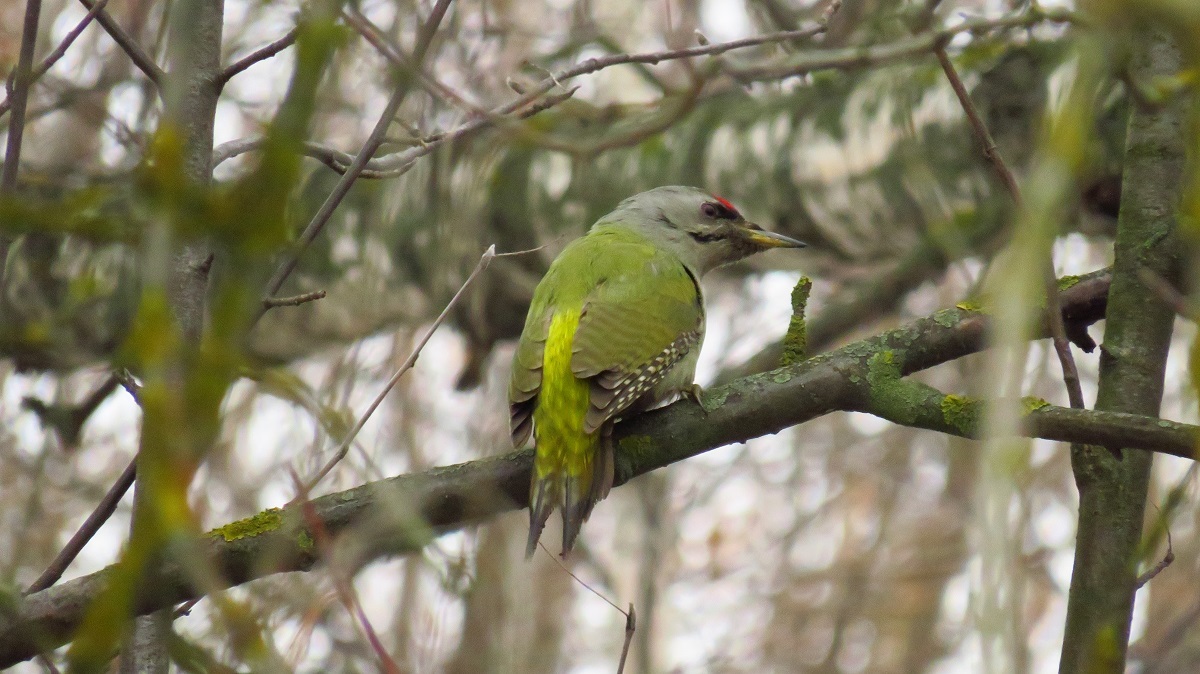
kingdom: Animalia
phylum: Chordata
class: Aves
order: Piciformes
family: Picidae
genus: Picus
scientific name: Picus canus
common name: Grey-headed woodpecker
